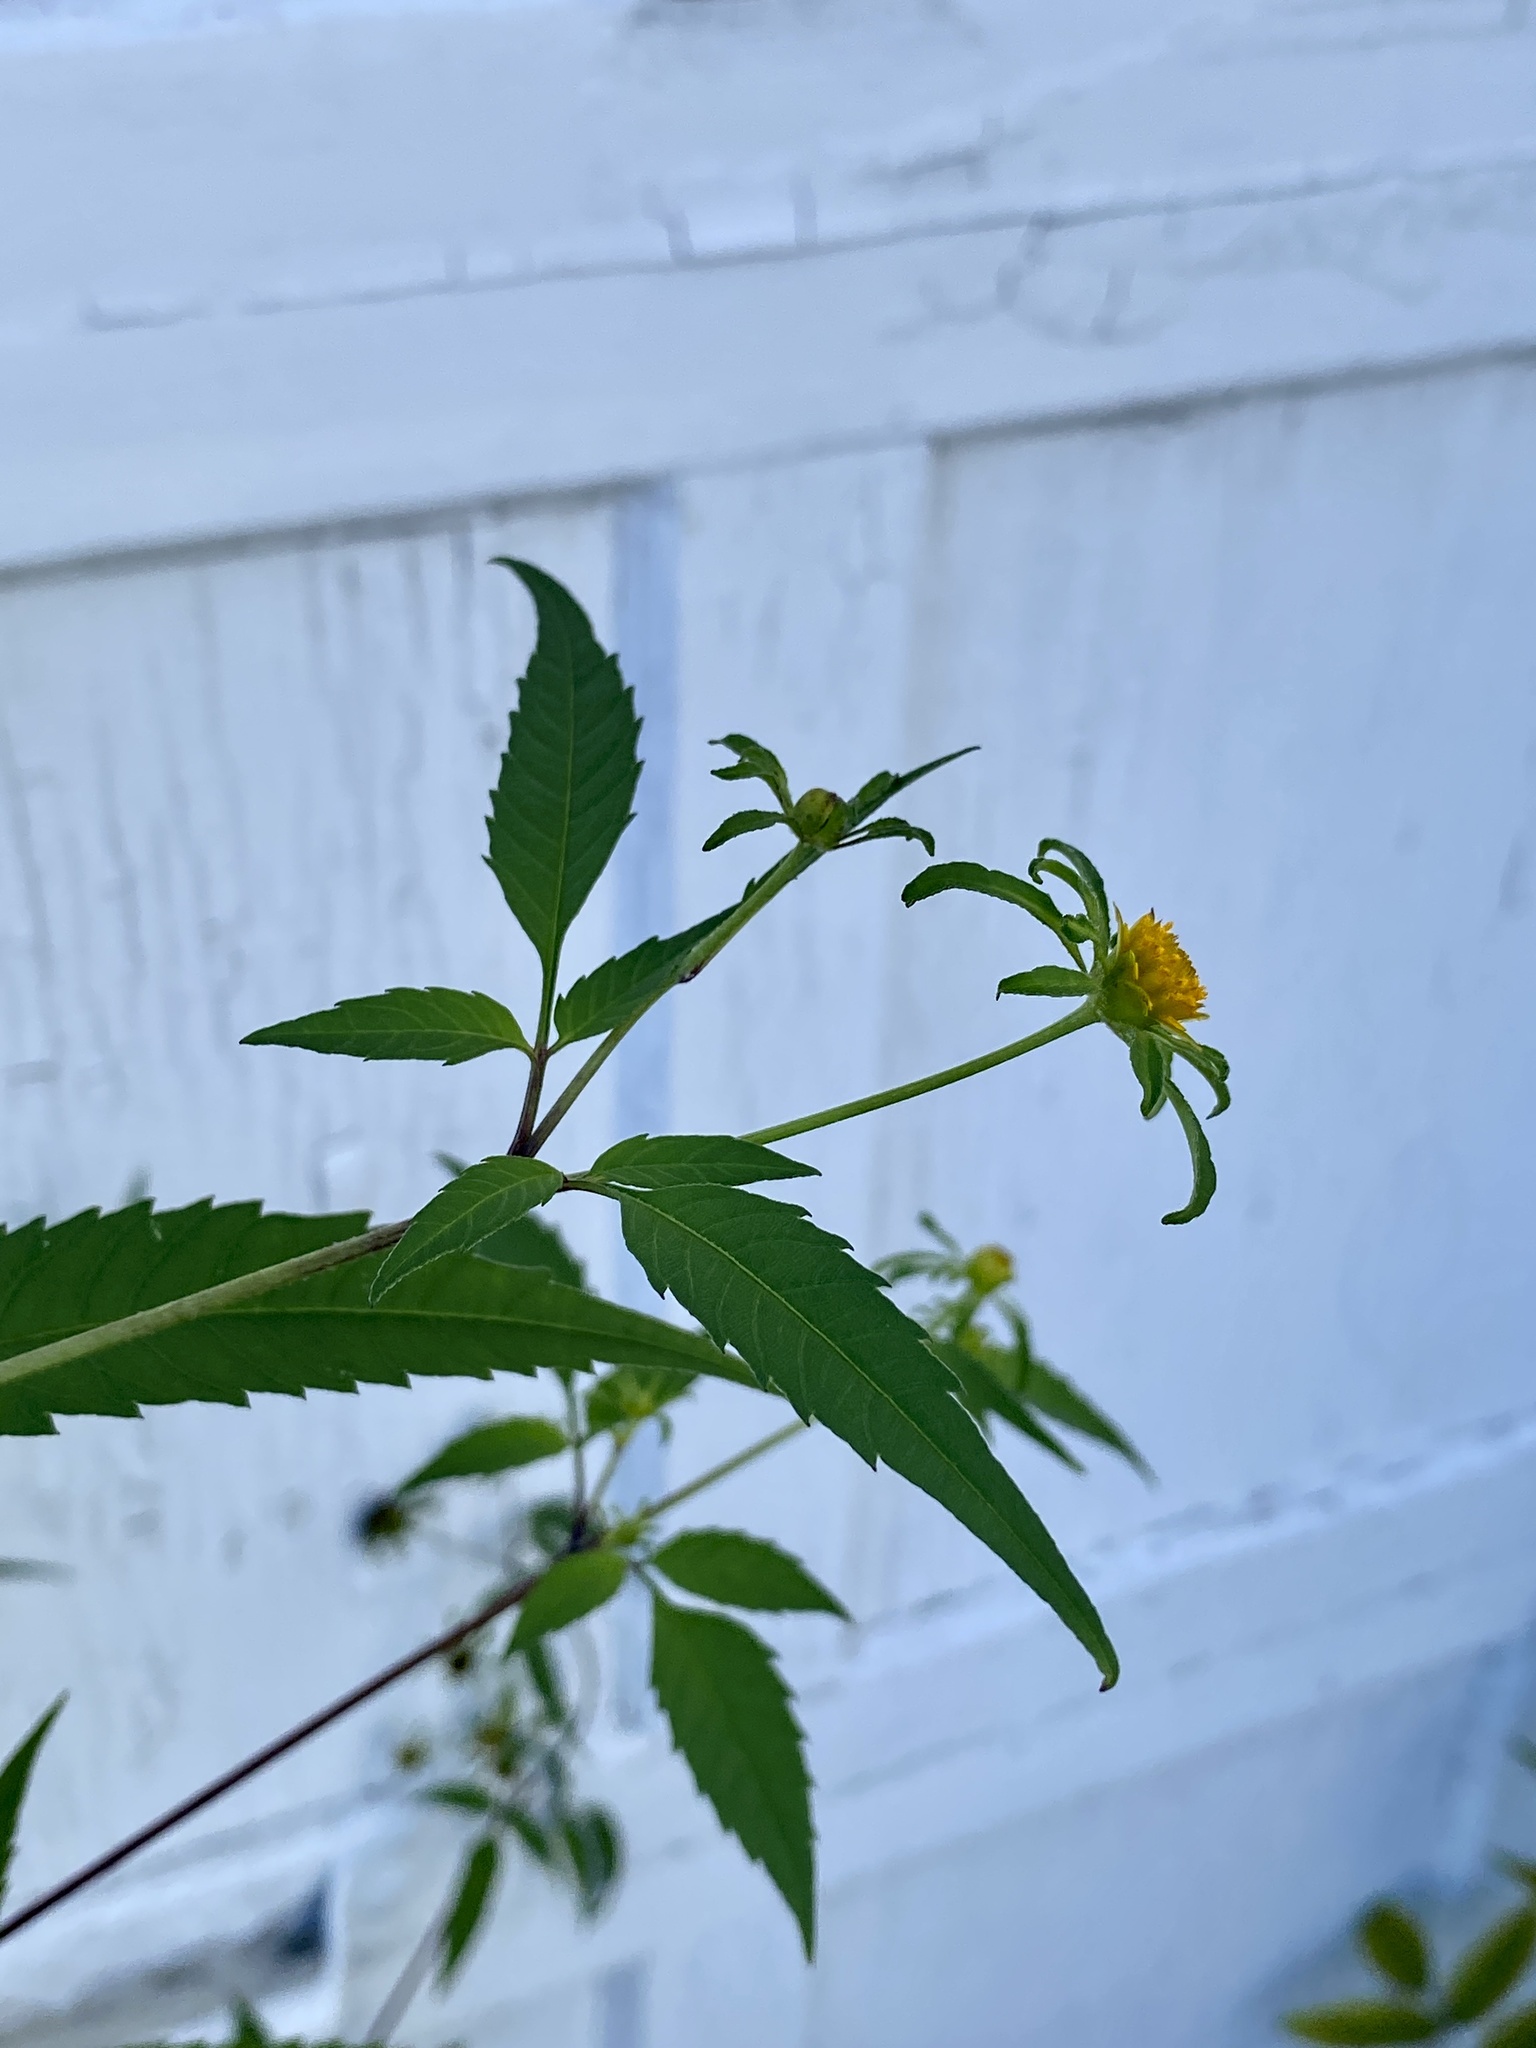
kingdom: Plantae
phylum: Tracheophyta
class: Magnoliopsida
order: Asterales
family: Asteraceae
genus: Bidens
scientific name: Bidens frondosa
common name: Beggarticks
